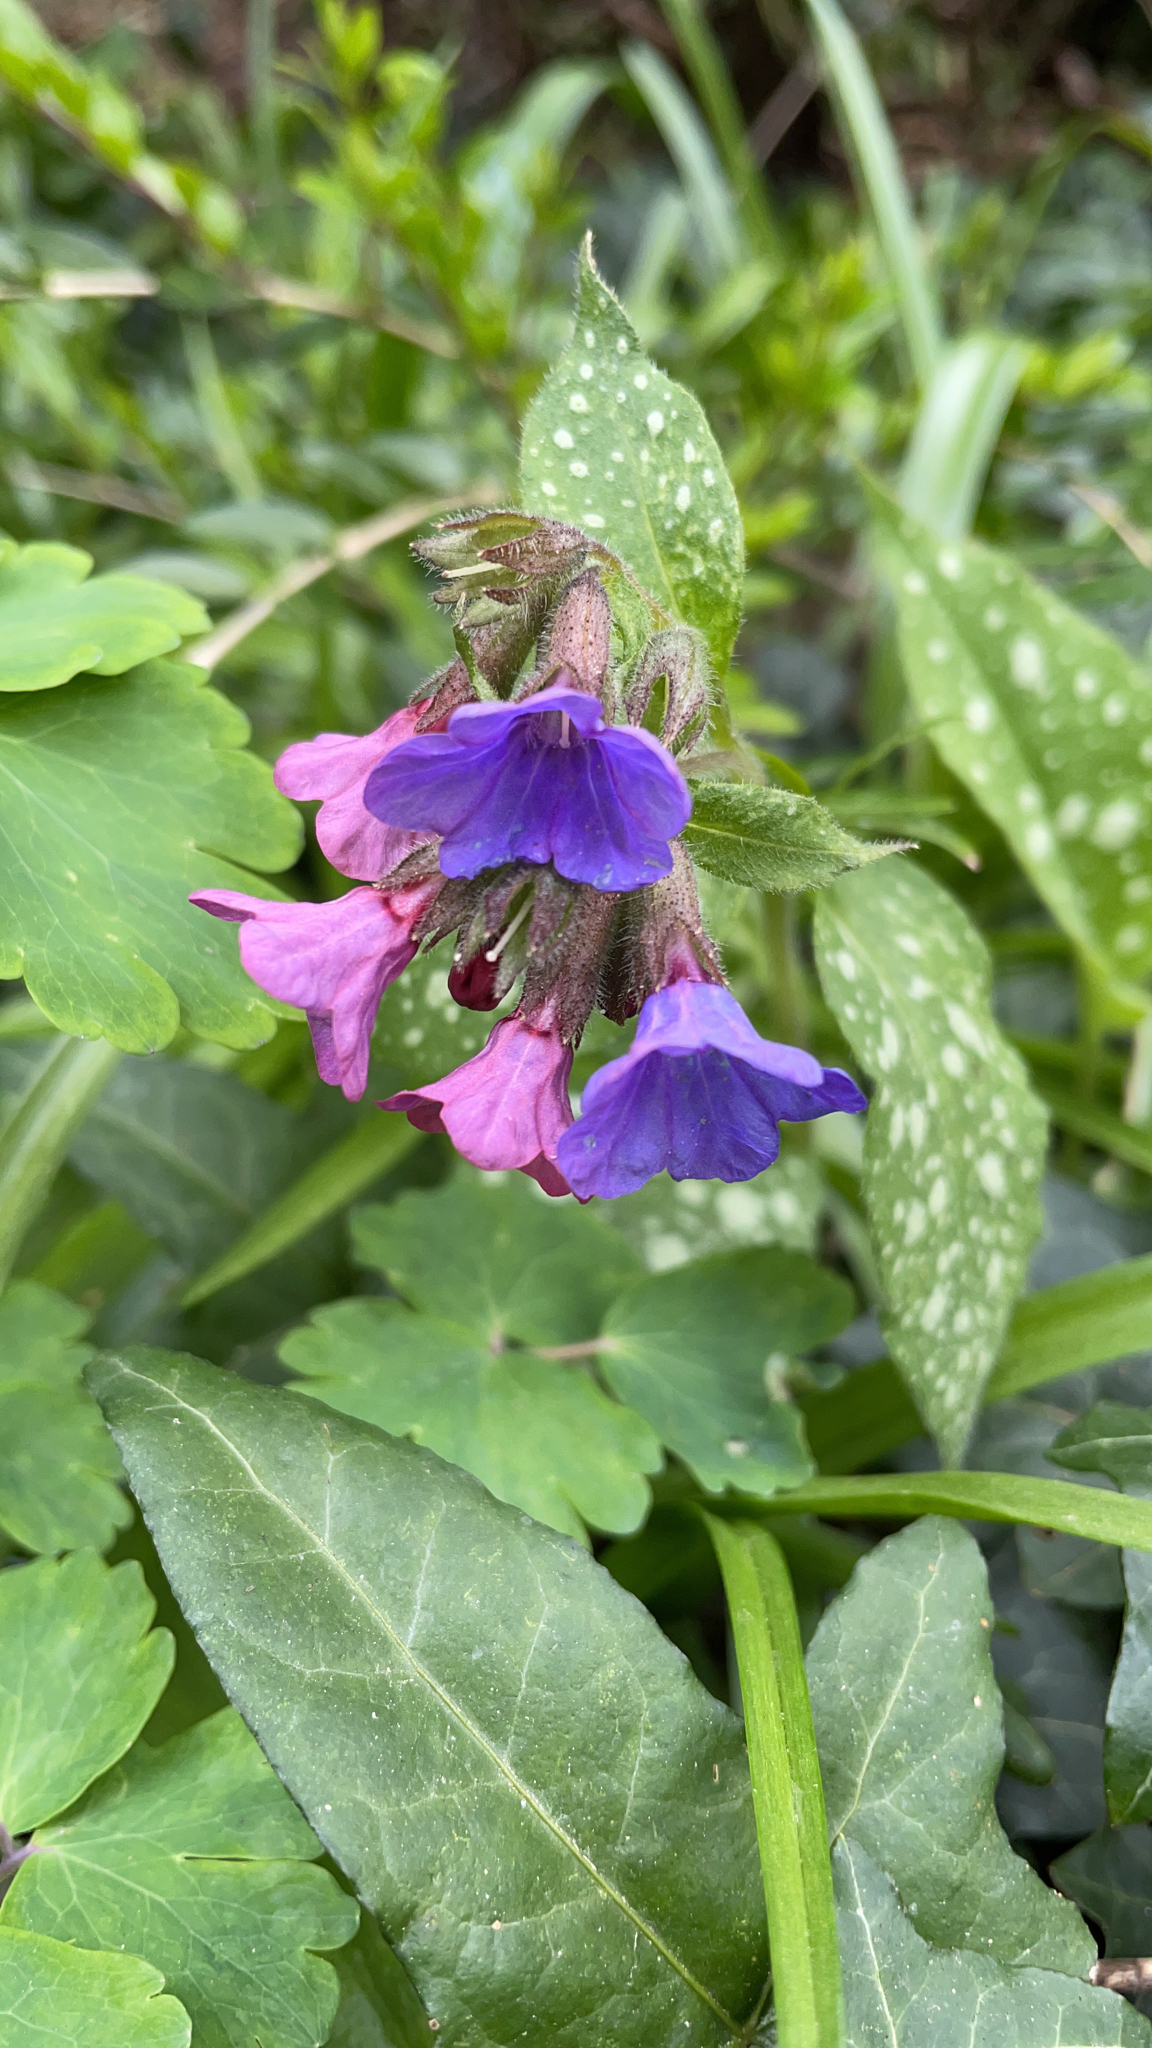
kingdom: Plantae
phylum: Tracheophyta
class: Magnoliopsida
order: Boraginales
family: Boraginaceae
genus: Pulmonaria
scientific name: Pulmonaria officinalis
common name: Lungwort
